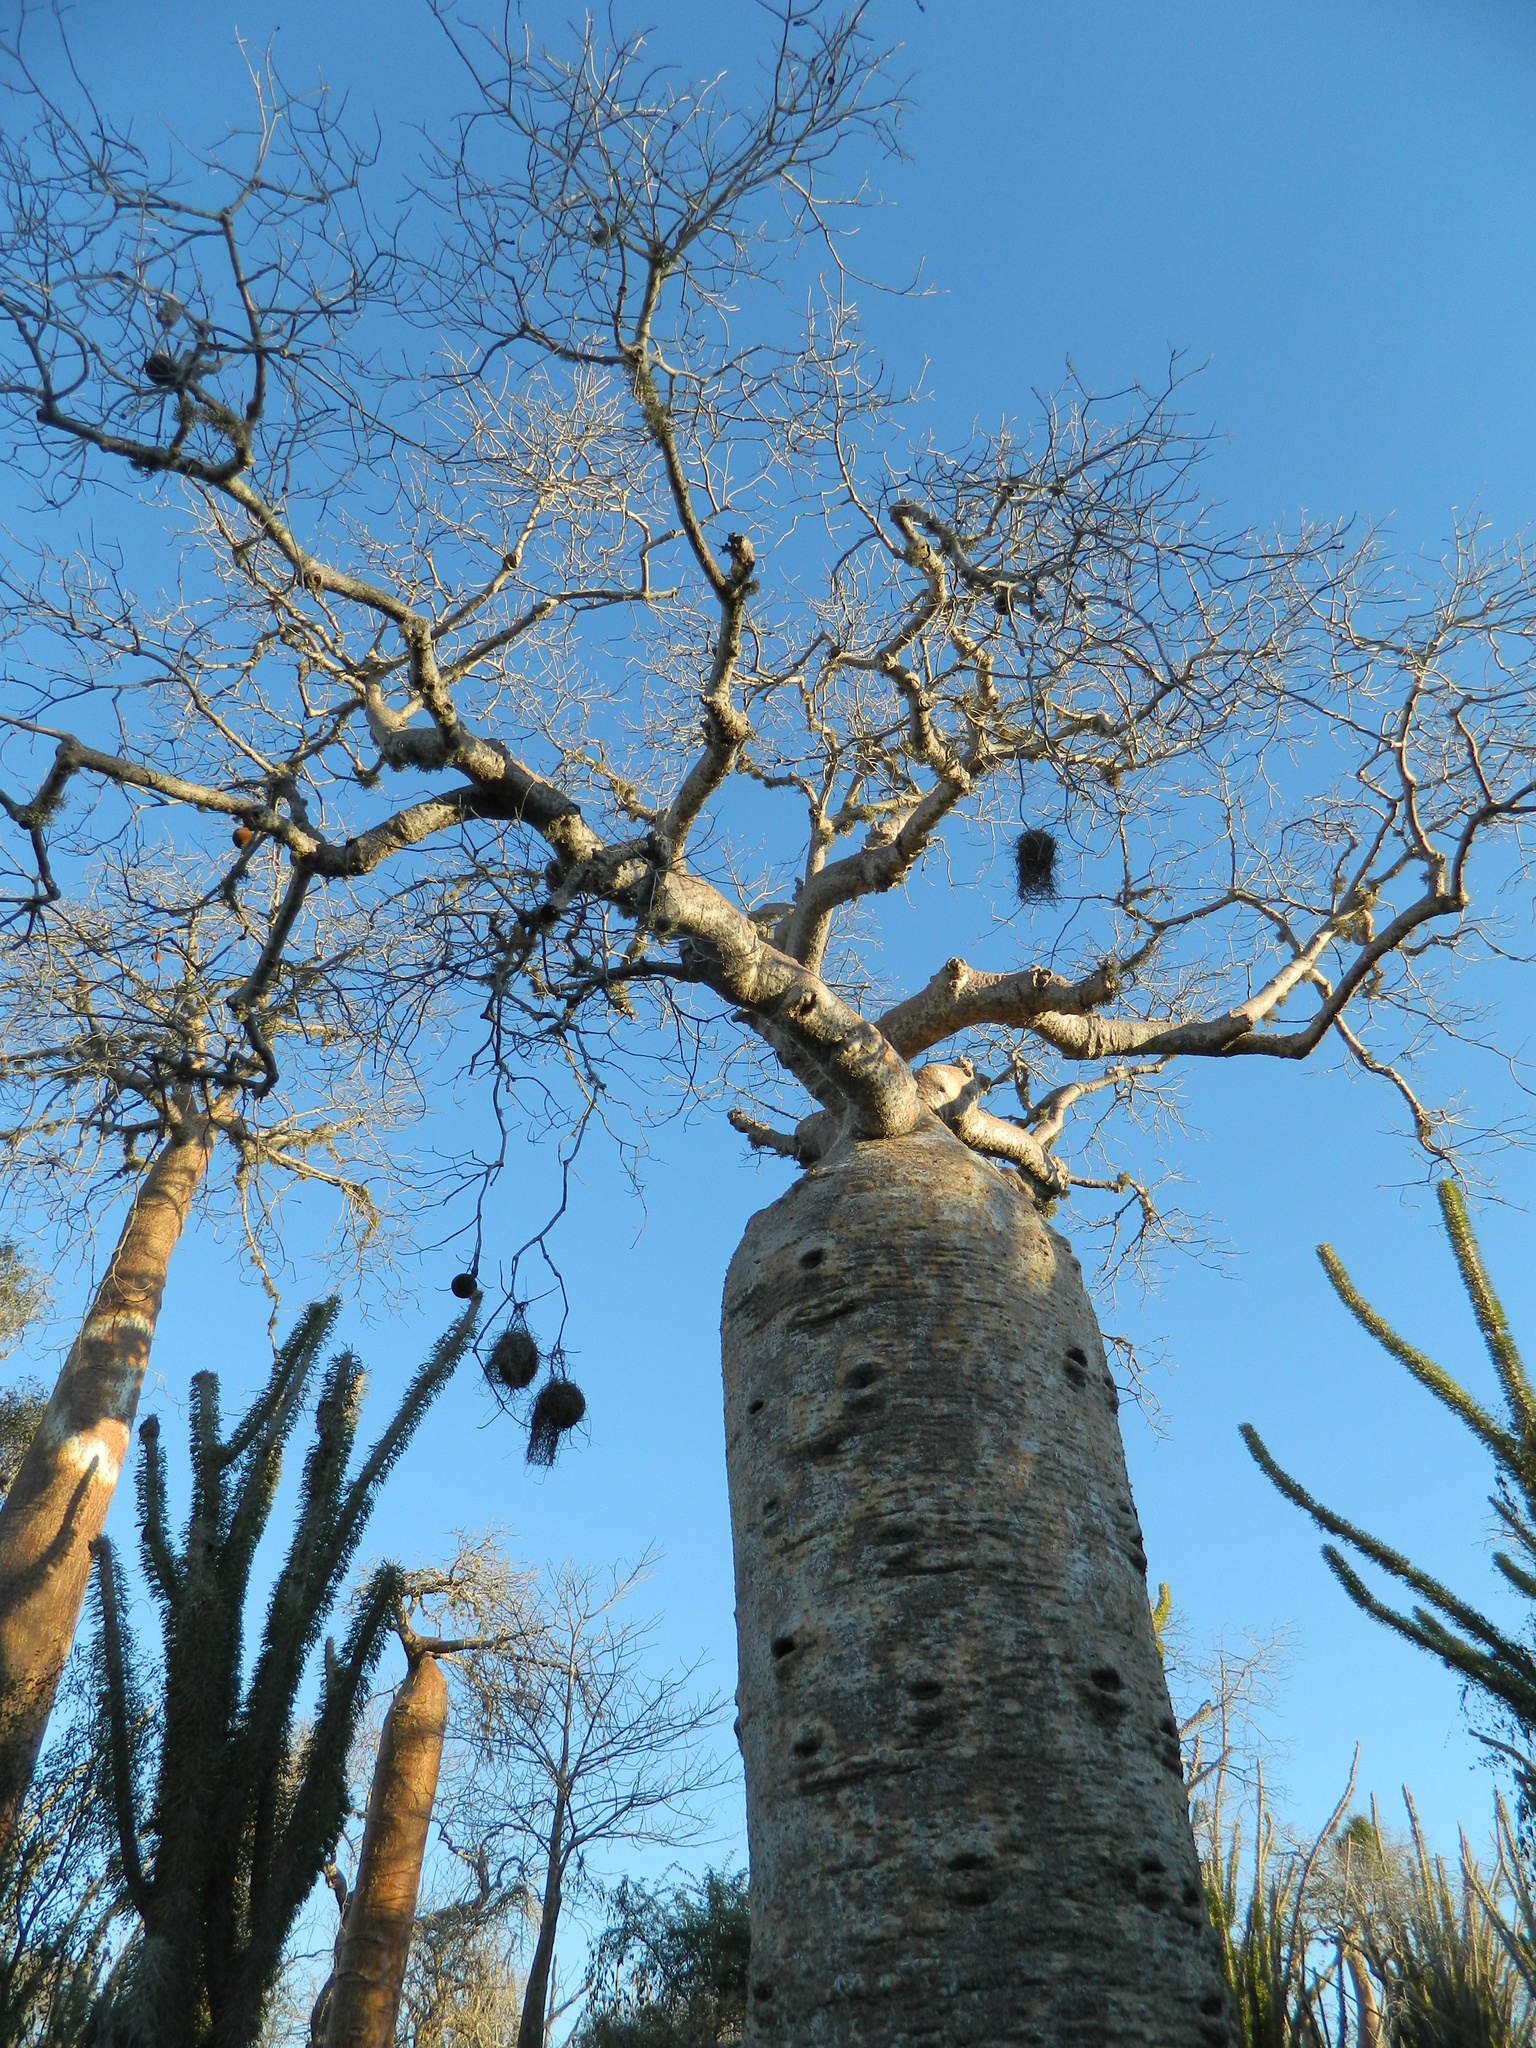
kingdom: Plantae
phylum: Tracheophyta
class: Magnoliopsida
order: Malvales
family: Malvaceae
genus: Adansonia
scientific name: Adansonia rubrostipa
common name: Fony baobab
